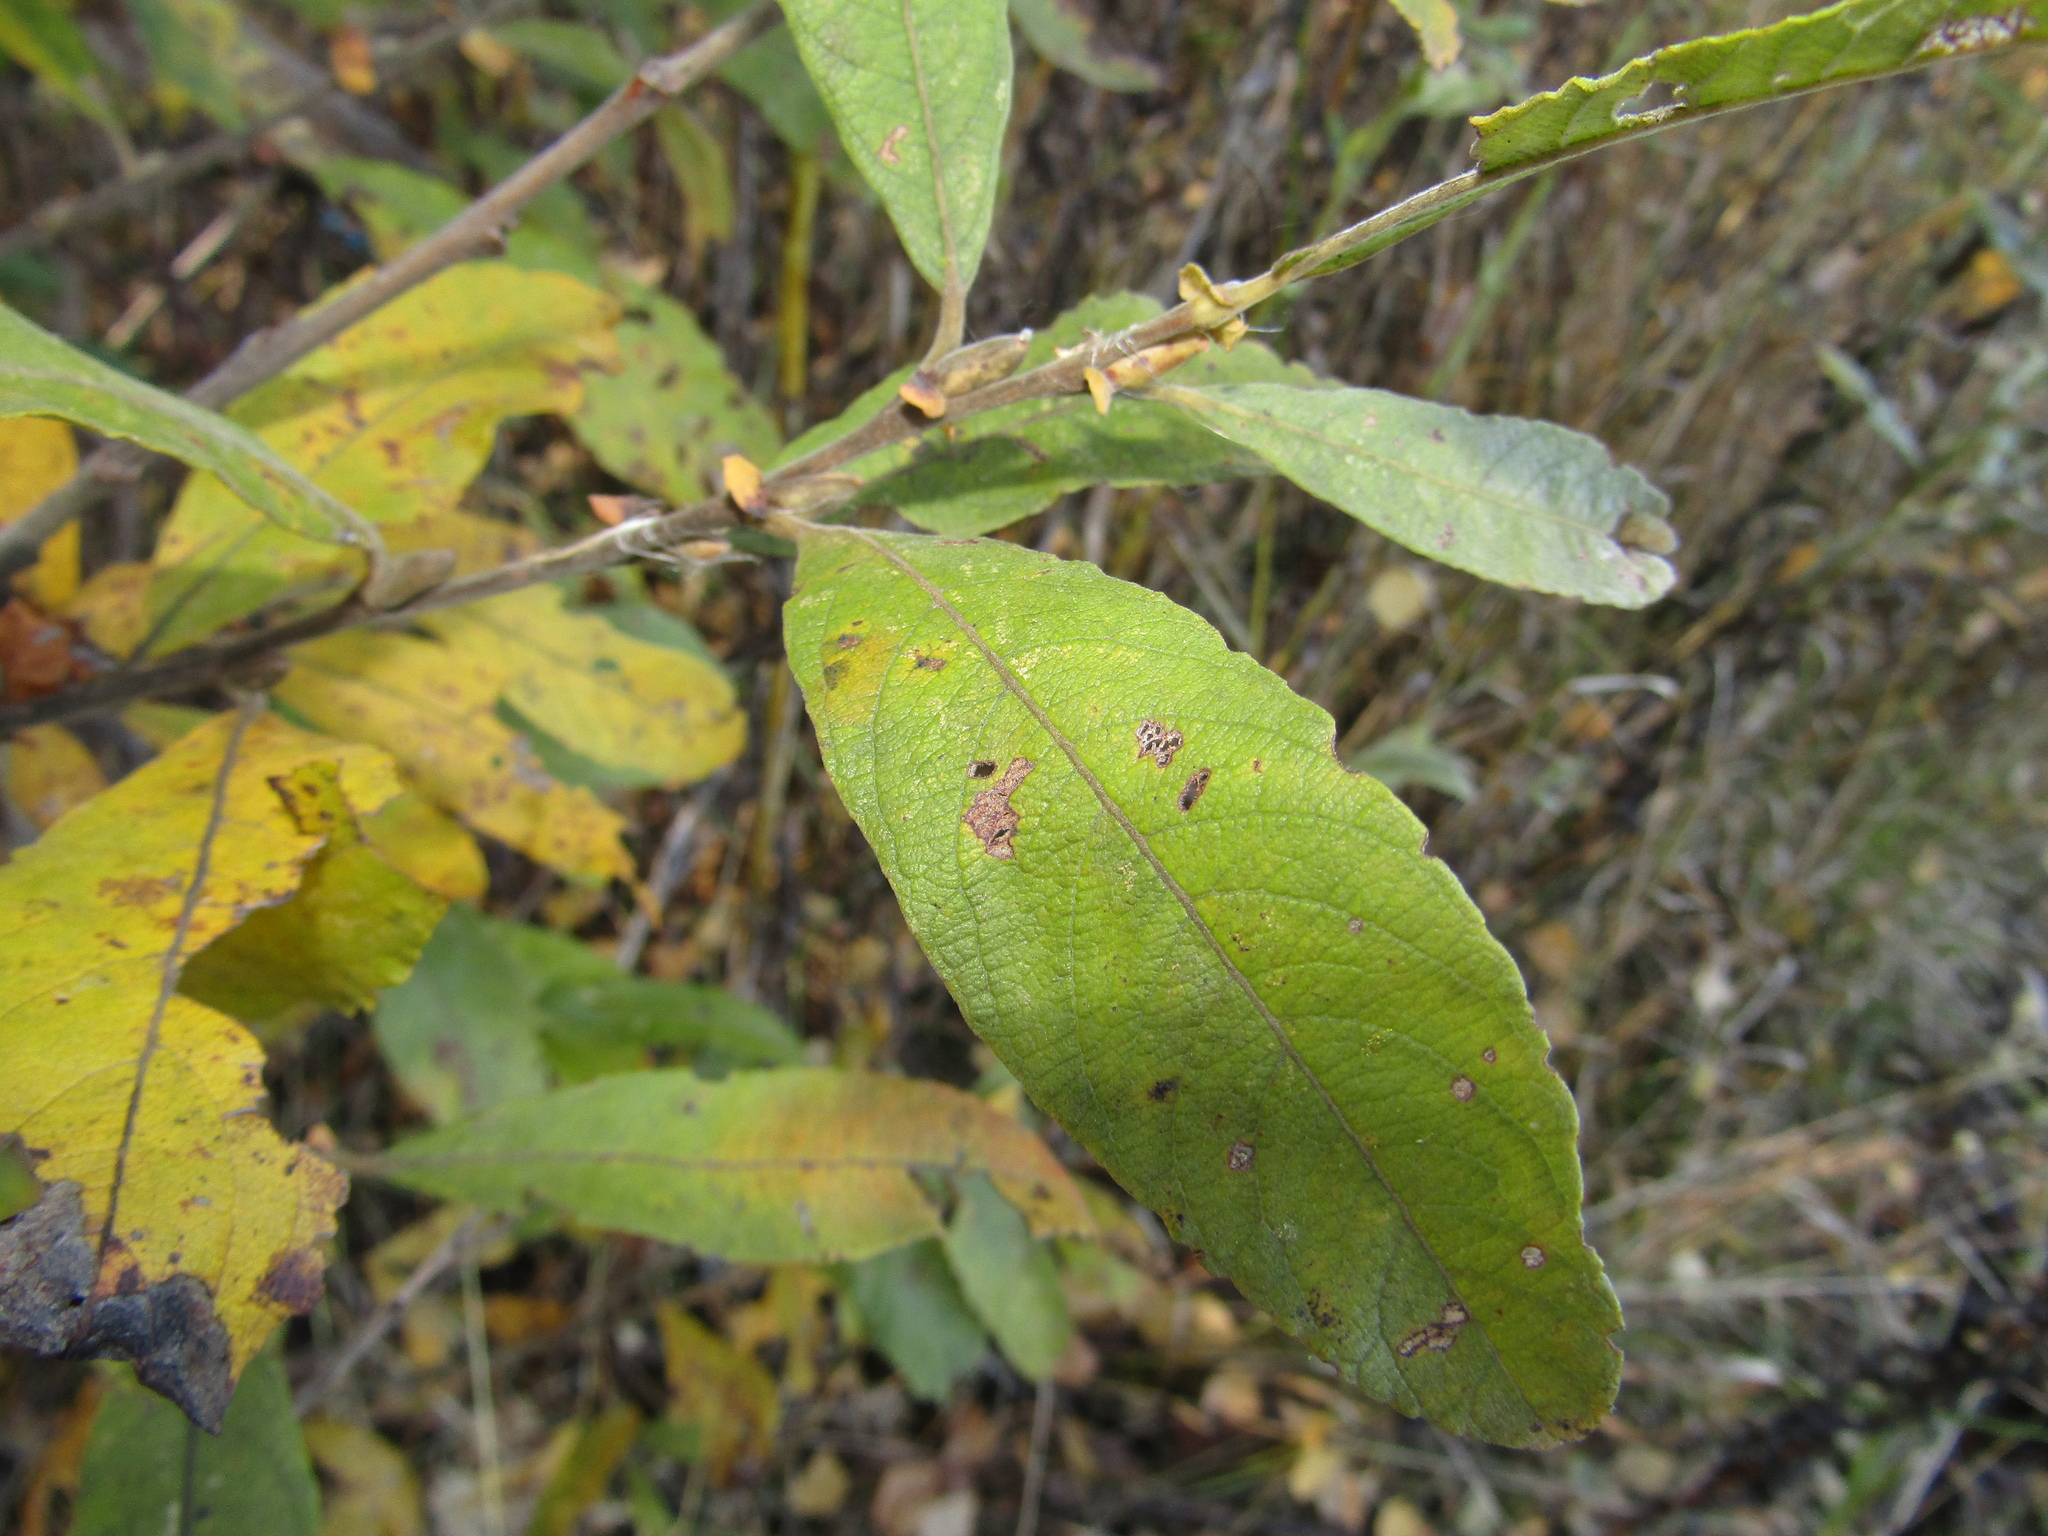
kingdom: Plantae
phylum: Tracheophyta
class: Magnoliopsida
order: Malpighiales
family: Salicaceae
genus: Salix
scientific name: Salix cinerea
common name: Common sallow
